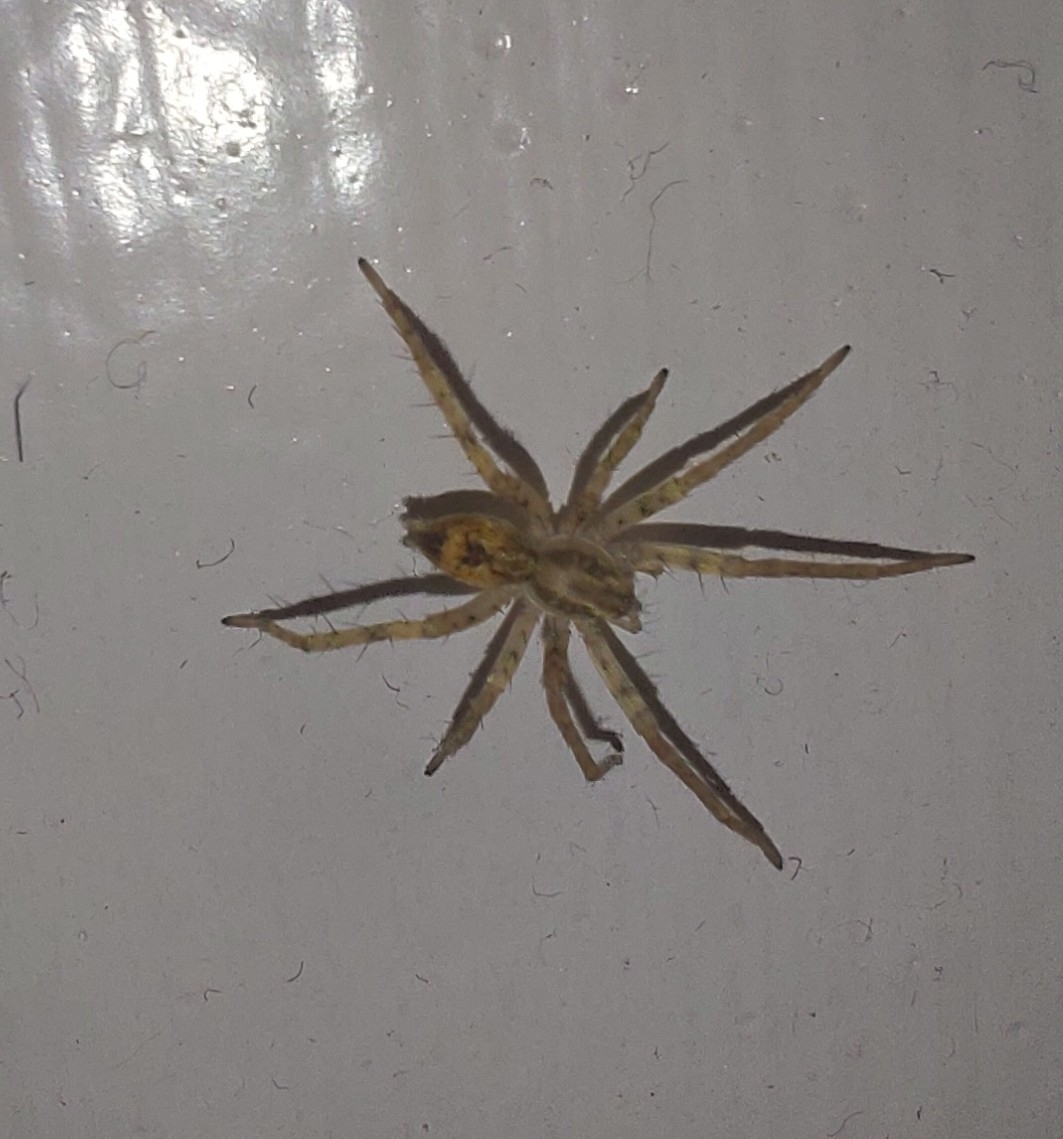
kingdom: Animalia
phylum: Arthropoda
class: Arachnida
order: Araneae
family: Anyphaenidae
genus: Anyphaena
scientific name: Anyphaena accentuata
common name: Buzzing spider
